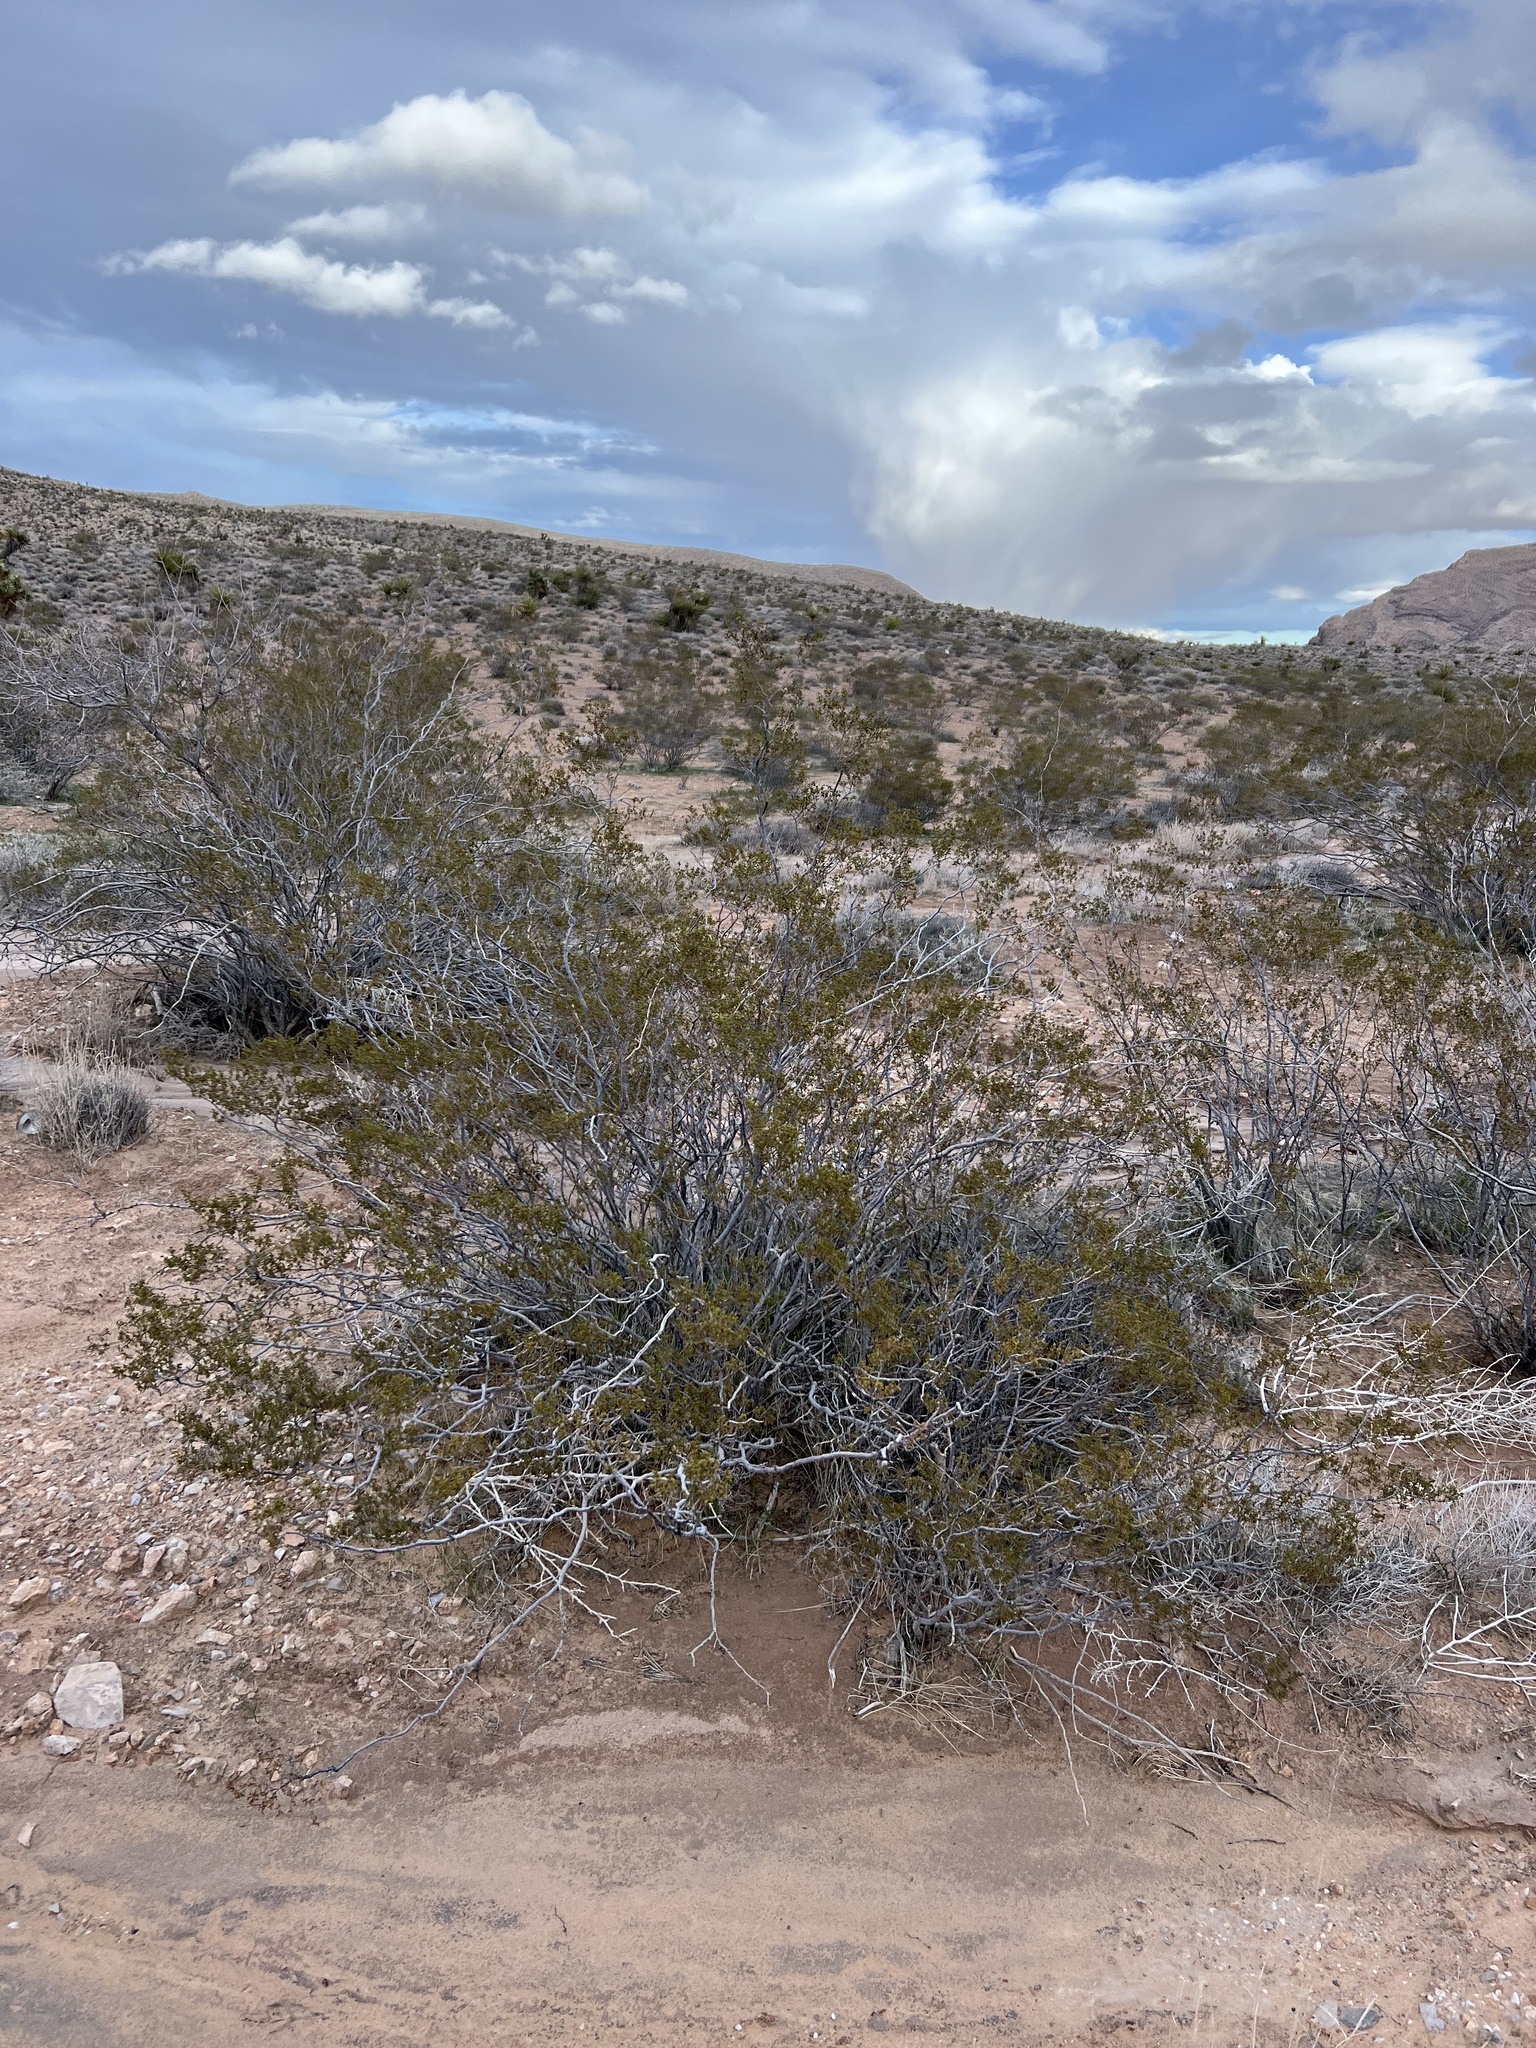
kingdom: Plantae
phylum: Tracheophyta
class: Magnoliopsida
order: Zygophyllales
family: Zygophyllaceae
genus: Larrea
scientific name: Larrea tridentata
